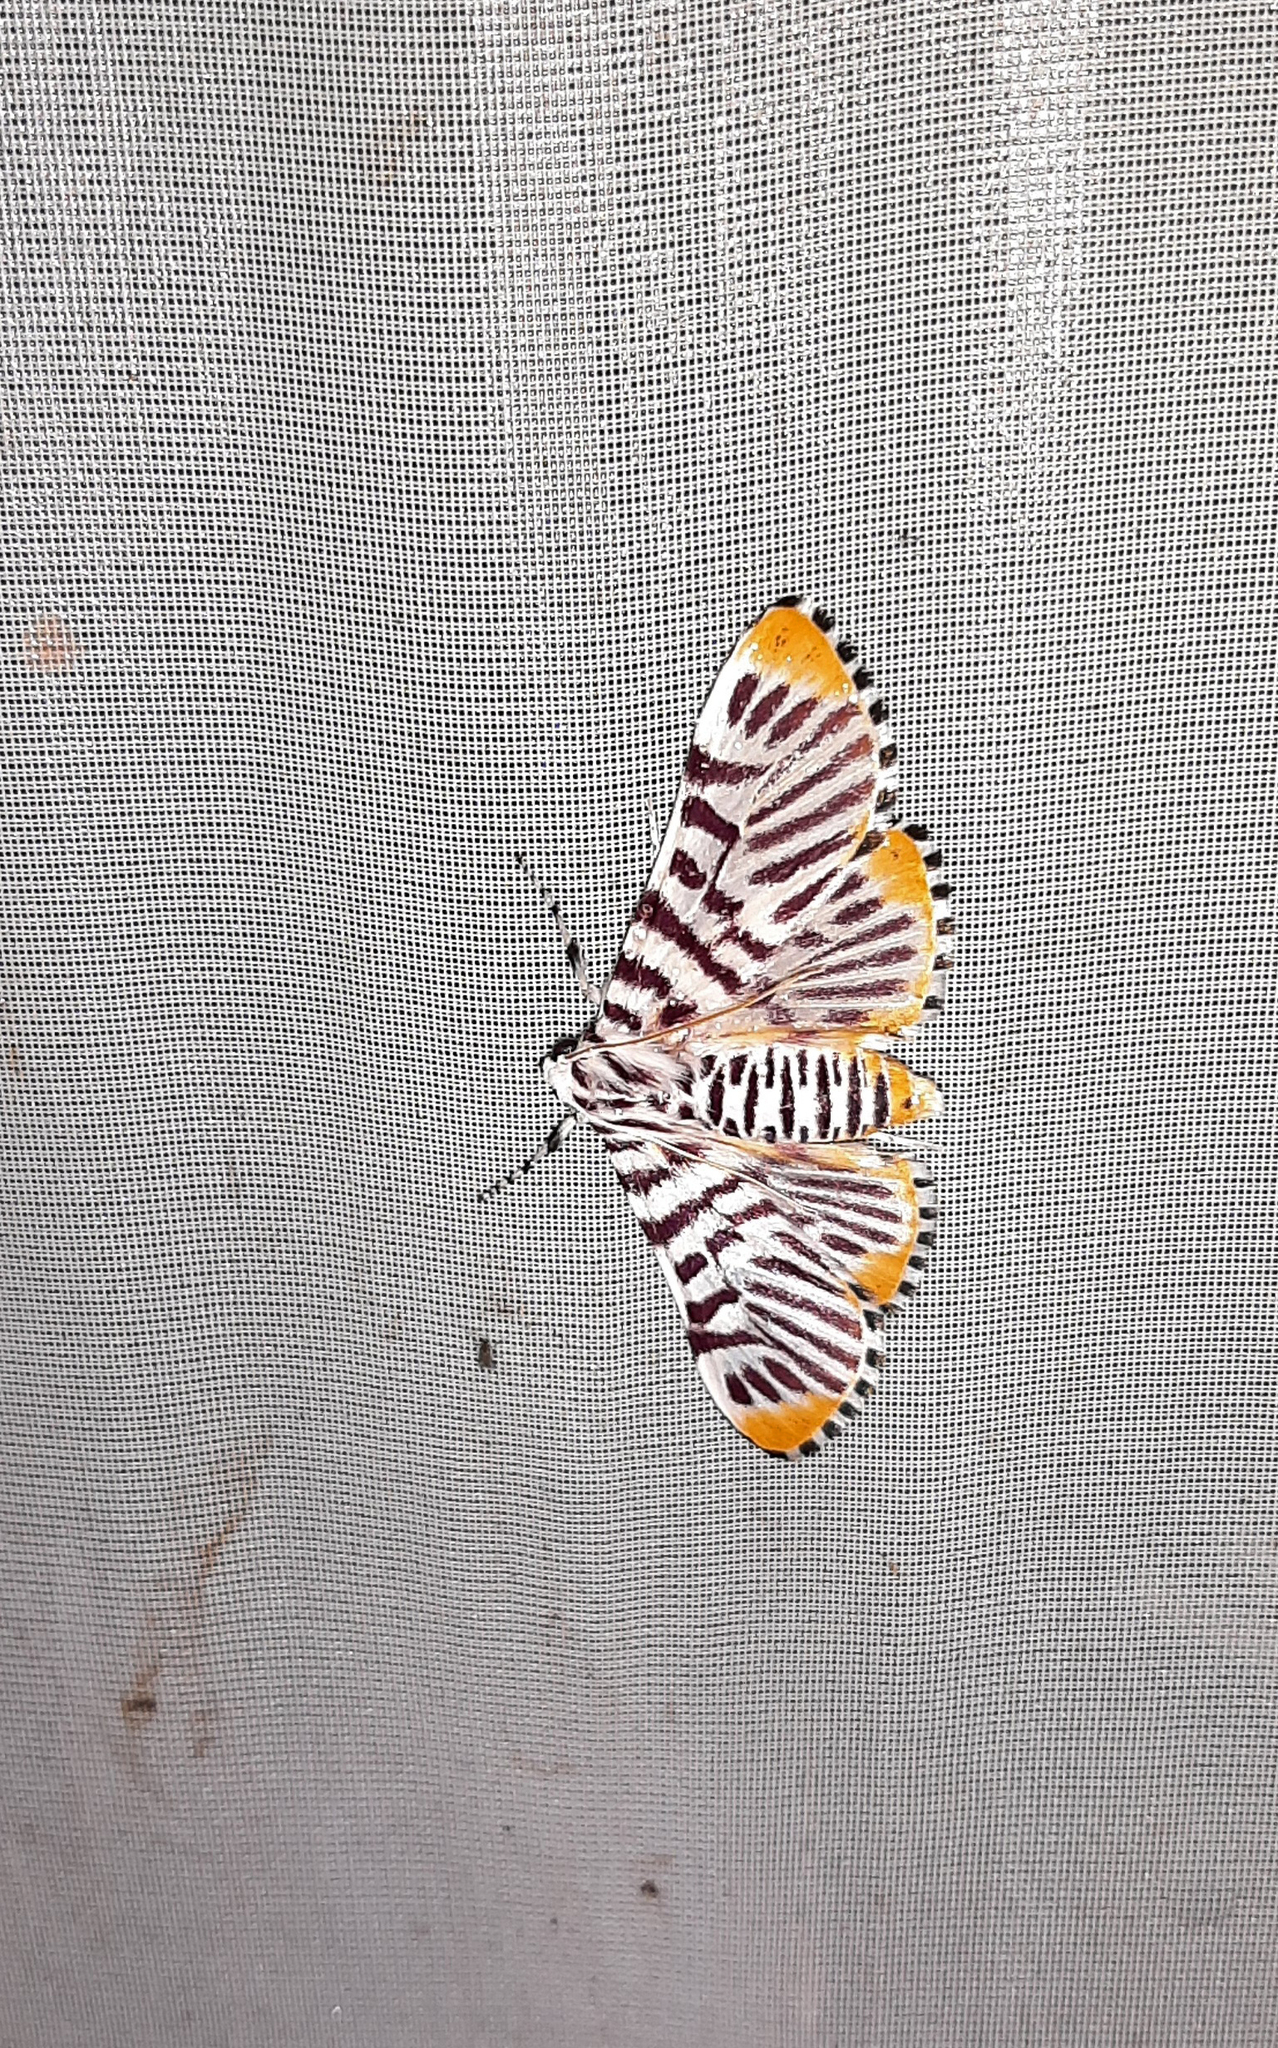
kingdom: Animalia
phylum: Arthropoda
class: Insecta
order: Lepidoptera
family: Crambidae
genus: Polygrammodes
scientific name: Polygrammodes maccalis
